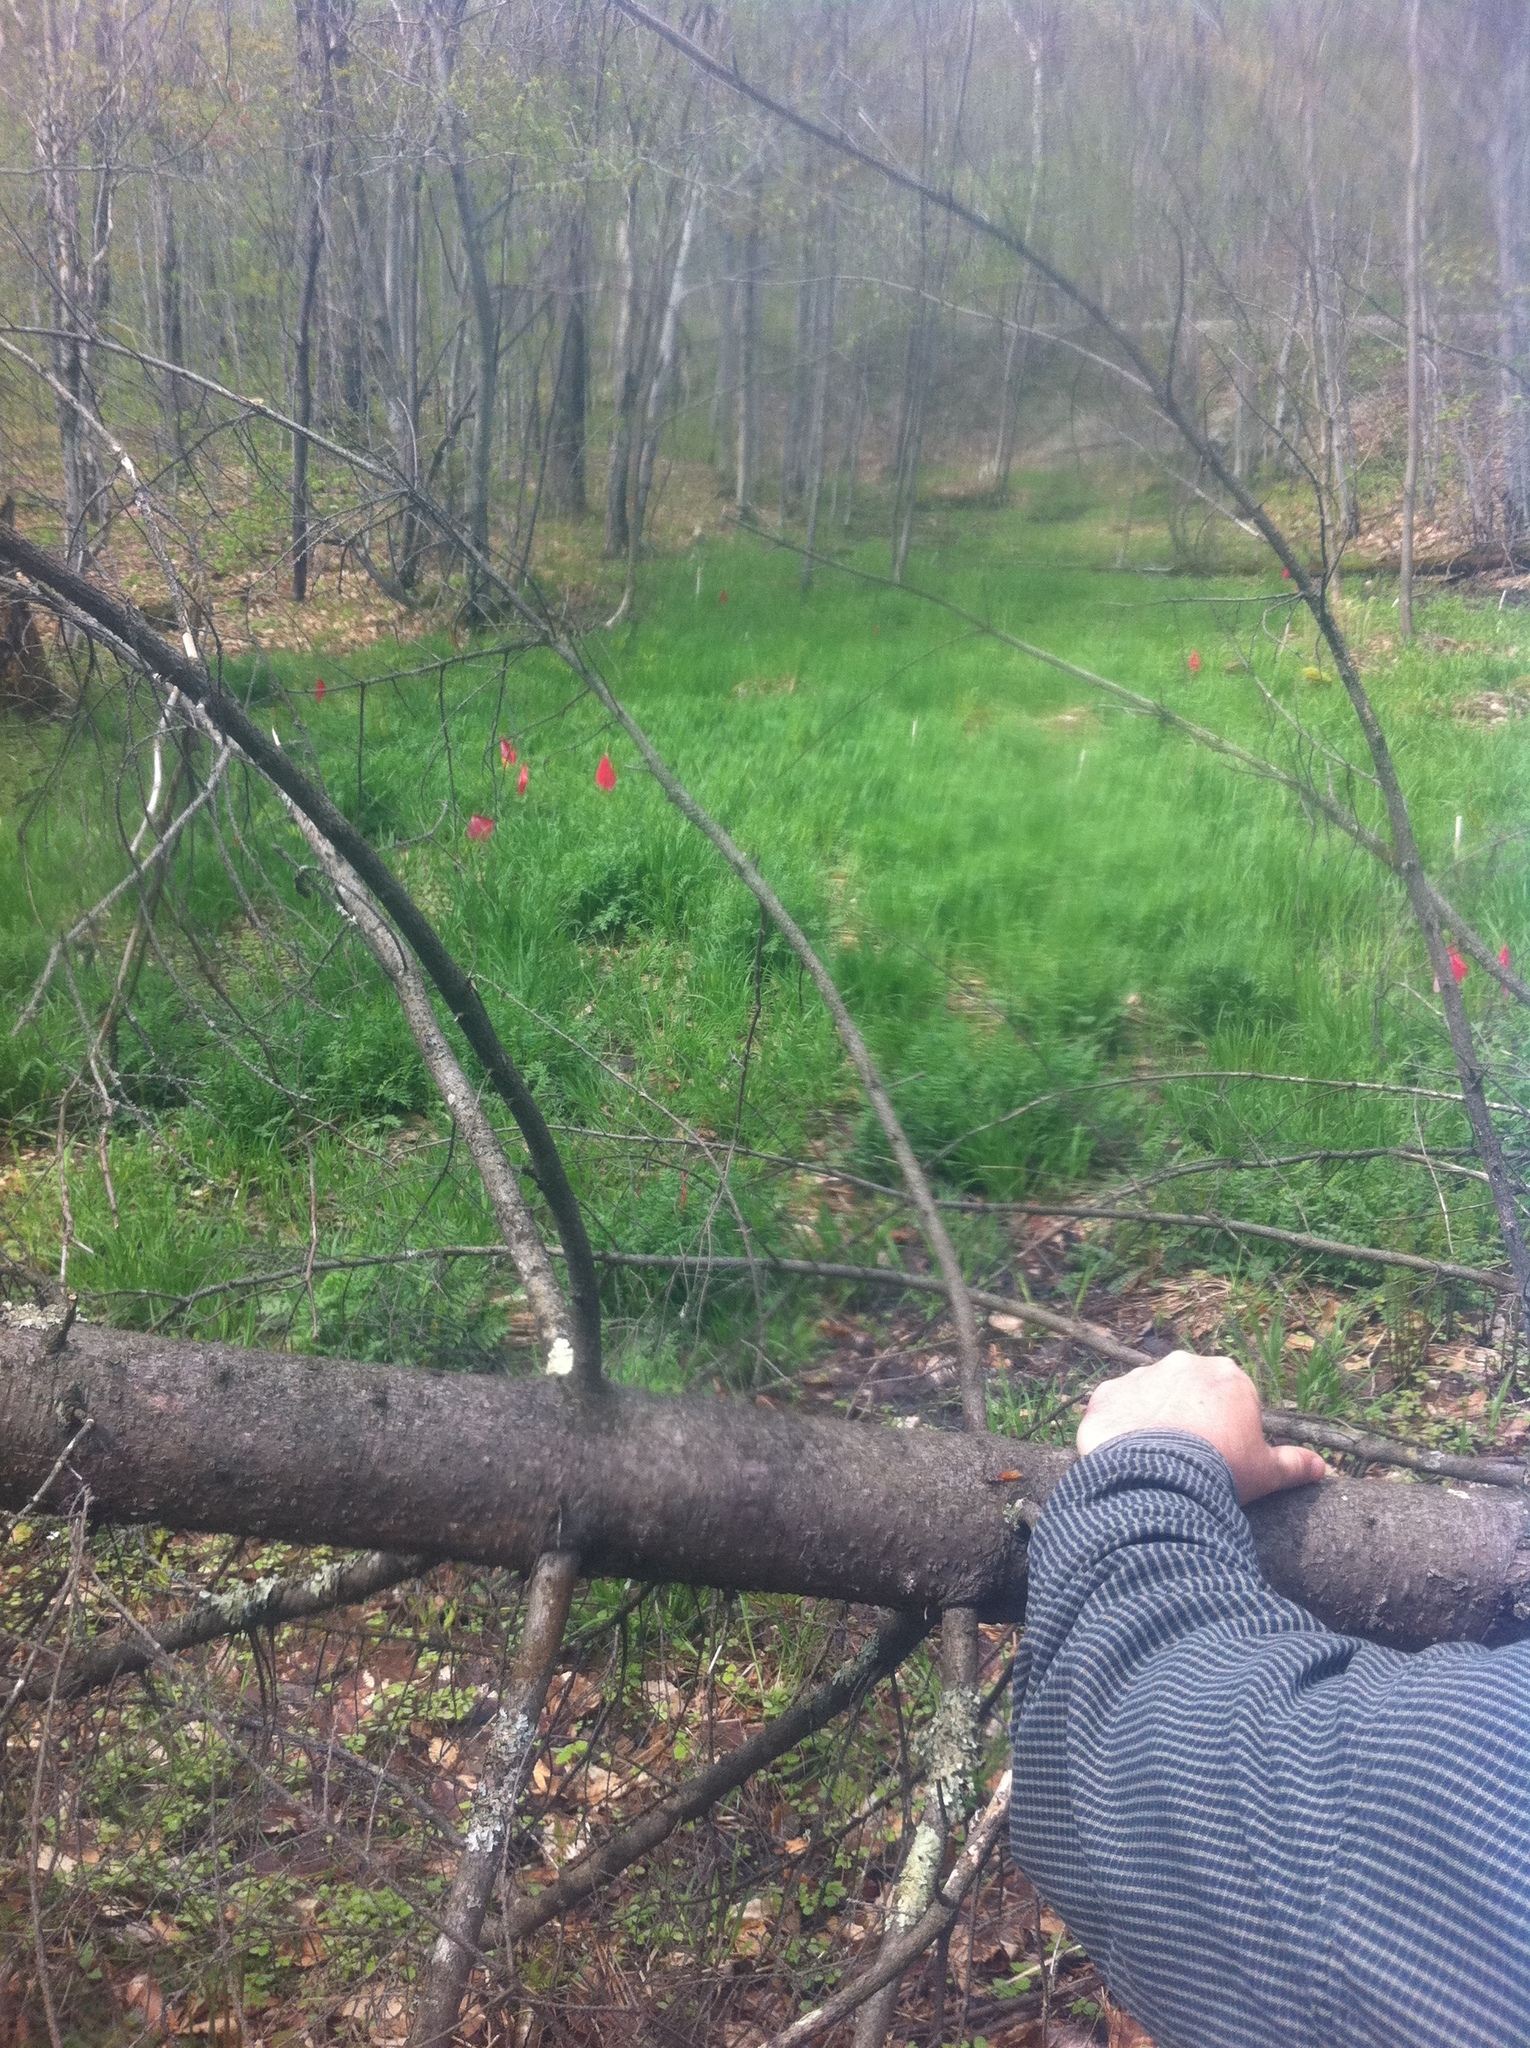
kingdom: Plantae
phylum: Tracheophyta
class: Pinopsida
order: Pinales
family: Pinaceae
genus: Abies
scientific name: Abies balsamea
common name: Balsam fir
